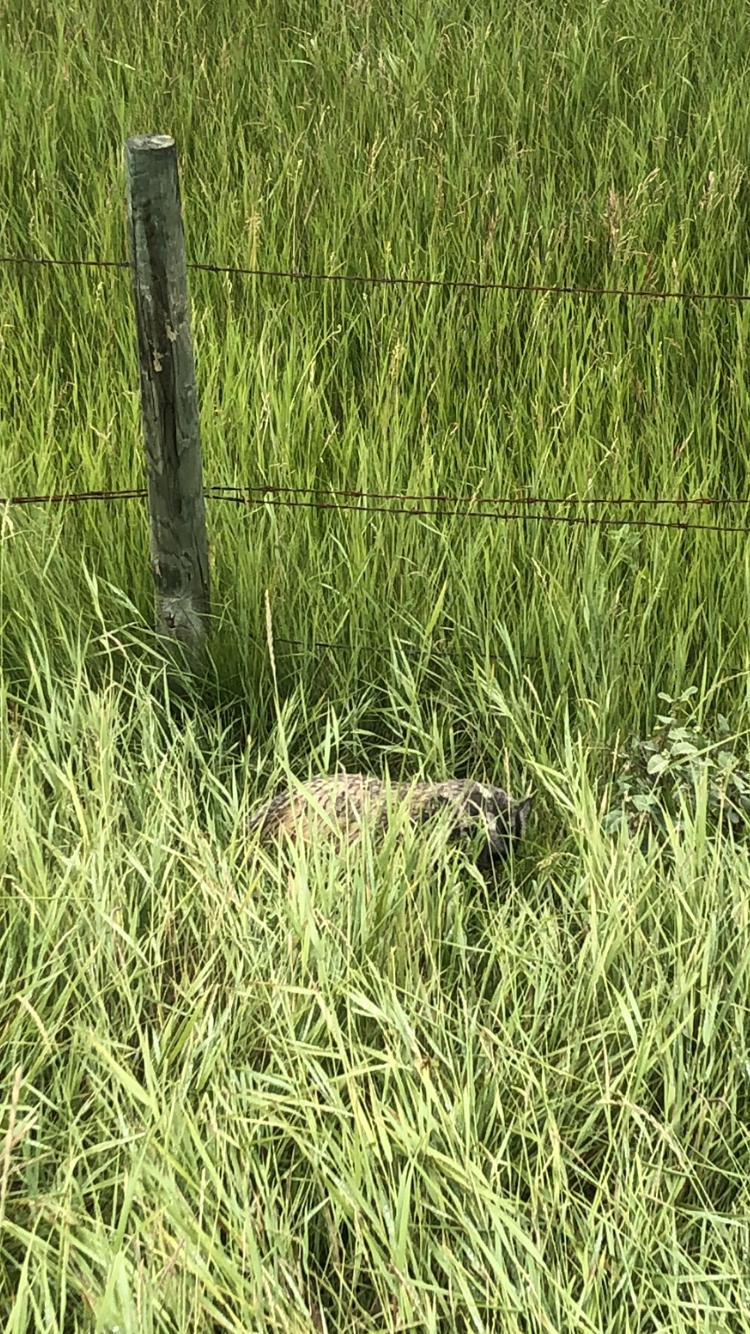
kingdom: Animalia
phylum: Chordata
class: Mammalia
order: Carnivora
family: Mustelidae
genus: Taxidea
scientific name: Taxidea taxus
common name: American badger
